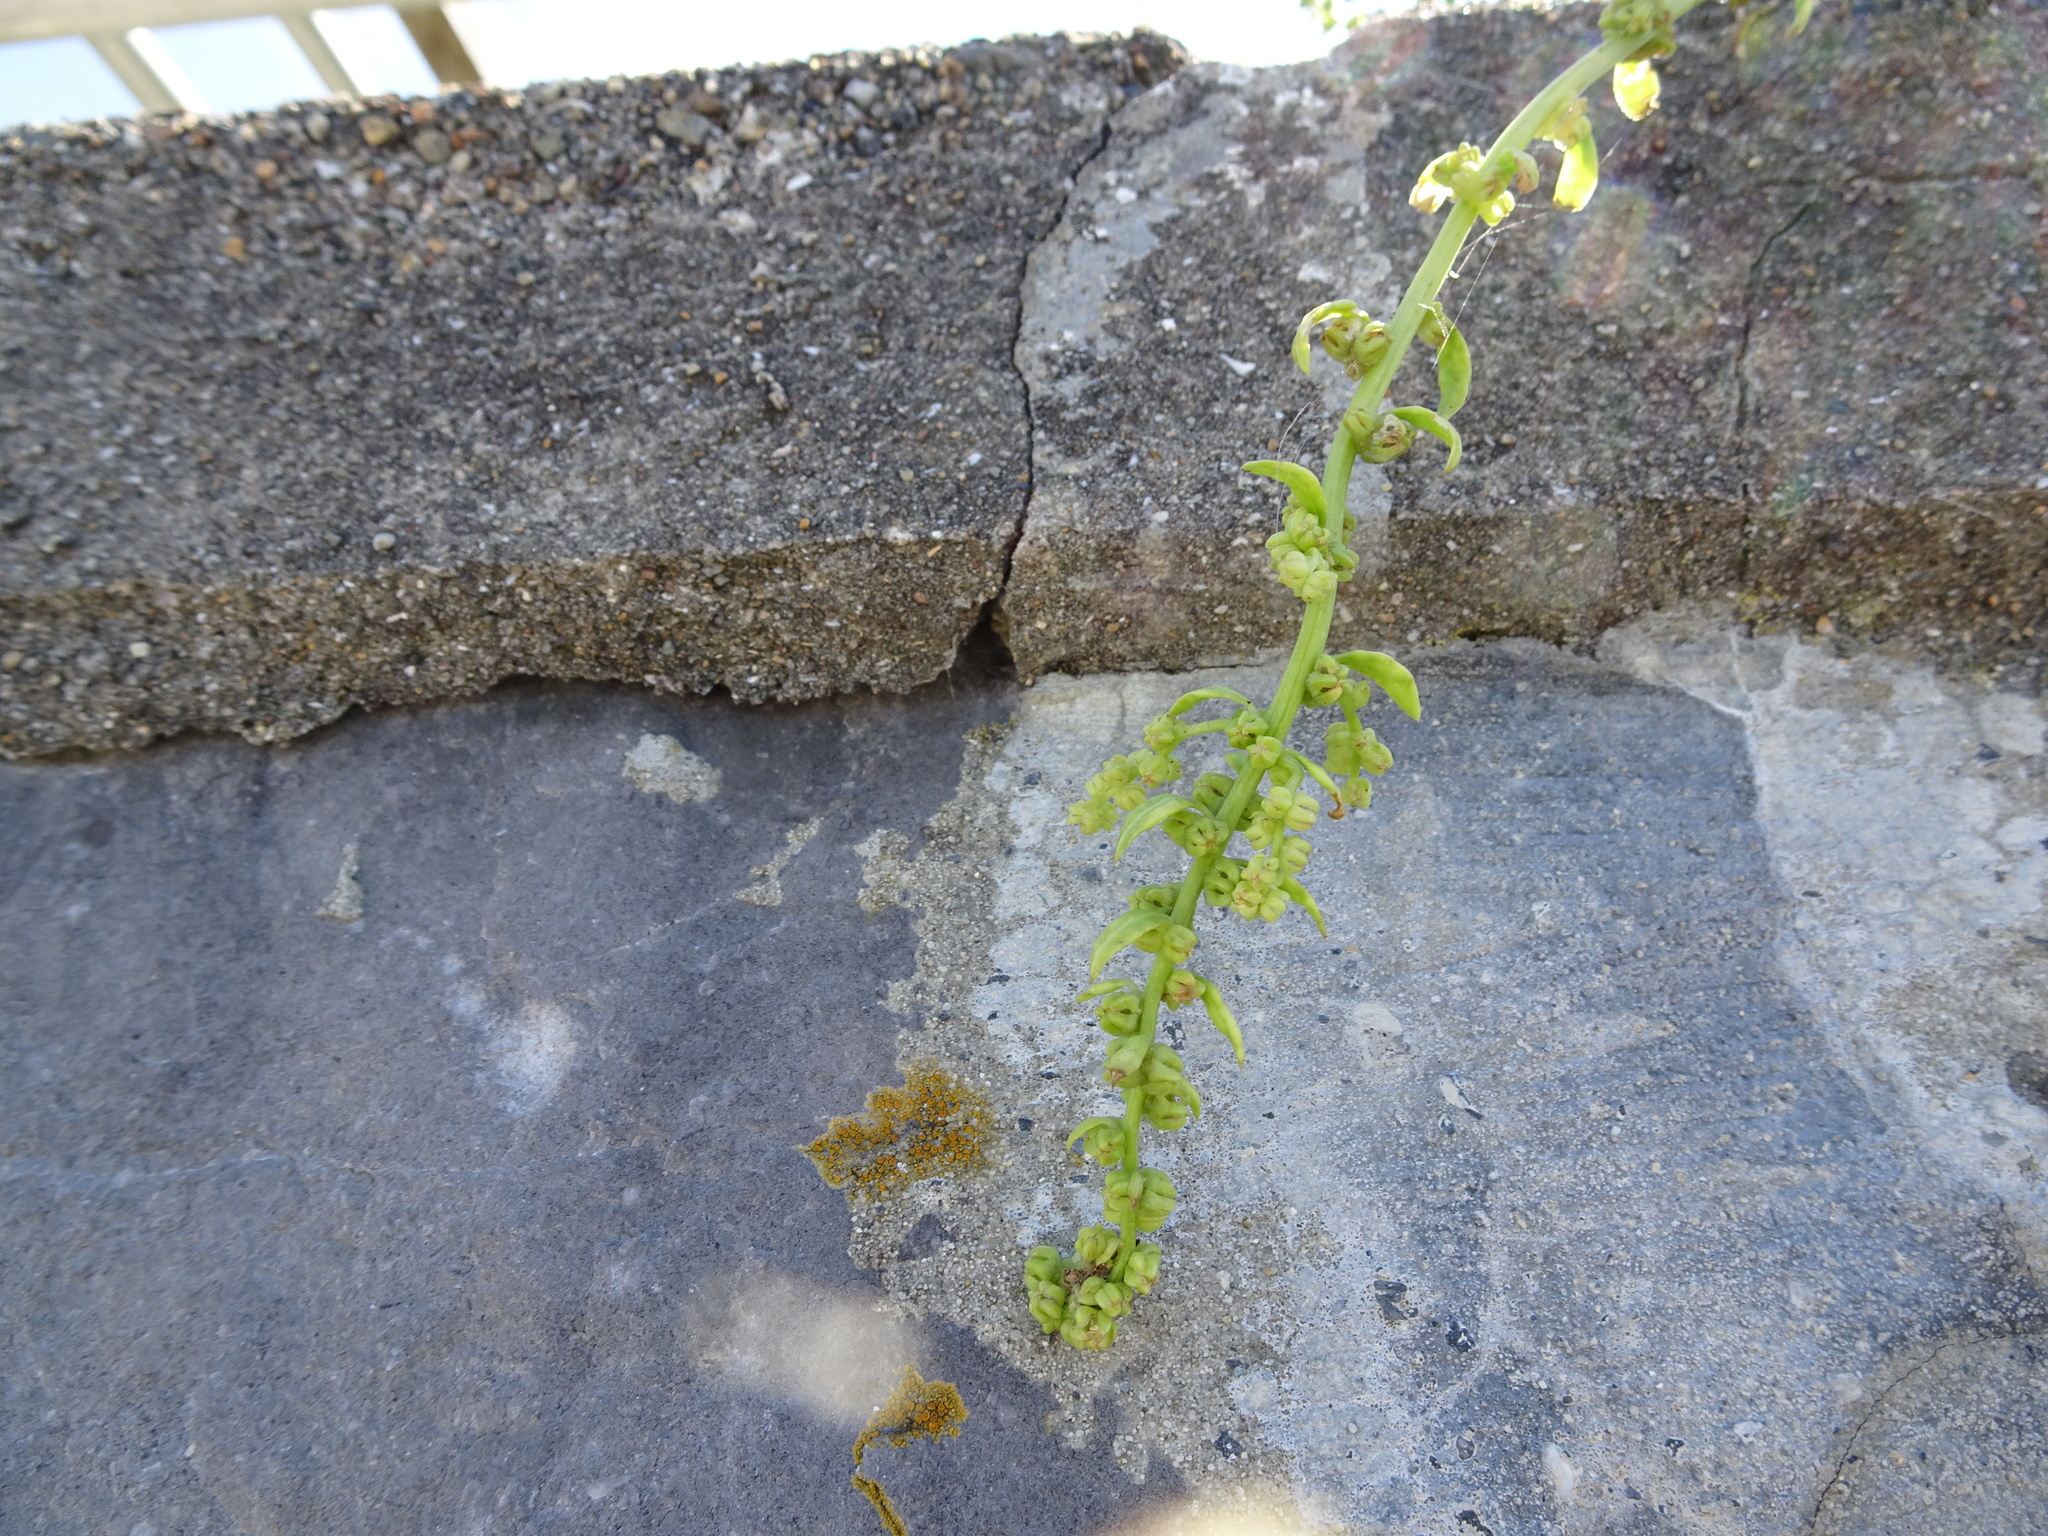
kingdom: Plantae
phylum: Tracheophyta
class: Magnoliopsida
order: Caryophyllales
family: Amaranthaceae
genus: Beta
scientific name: Beta vulgaris
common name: Beet
